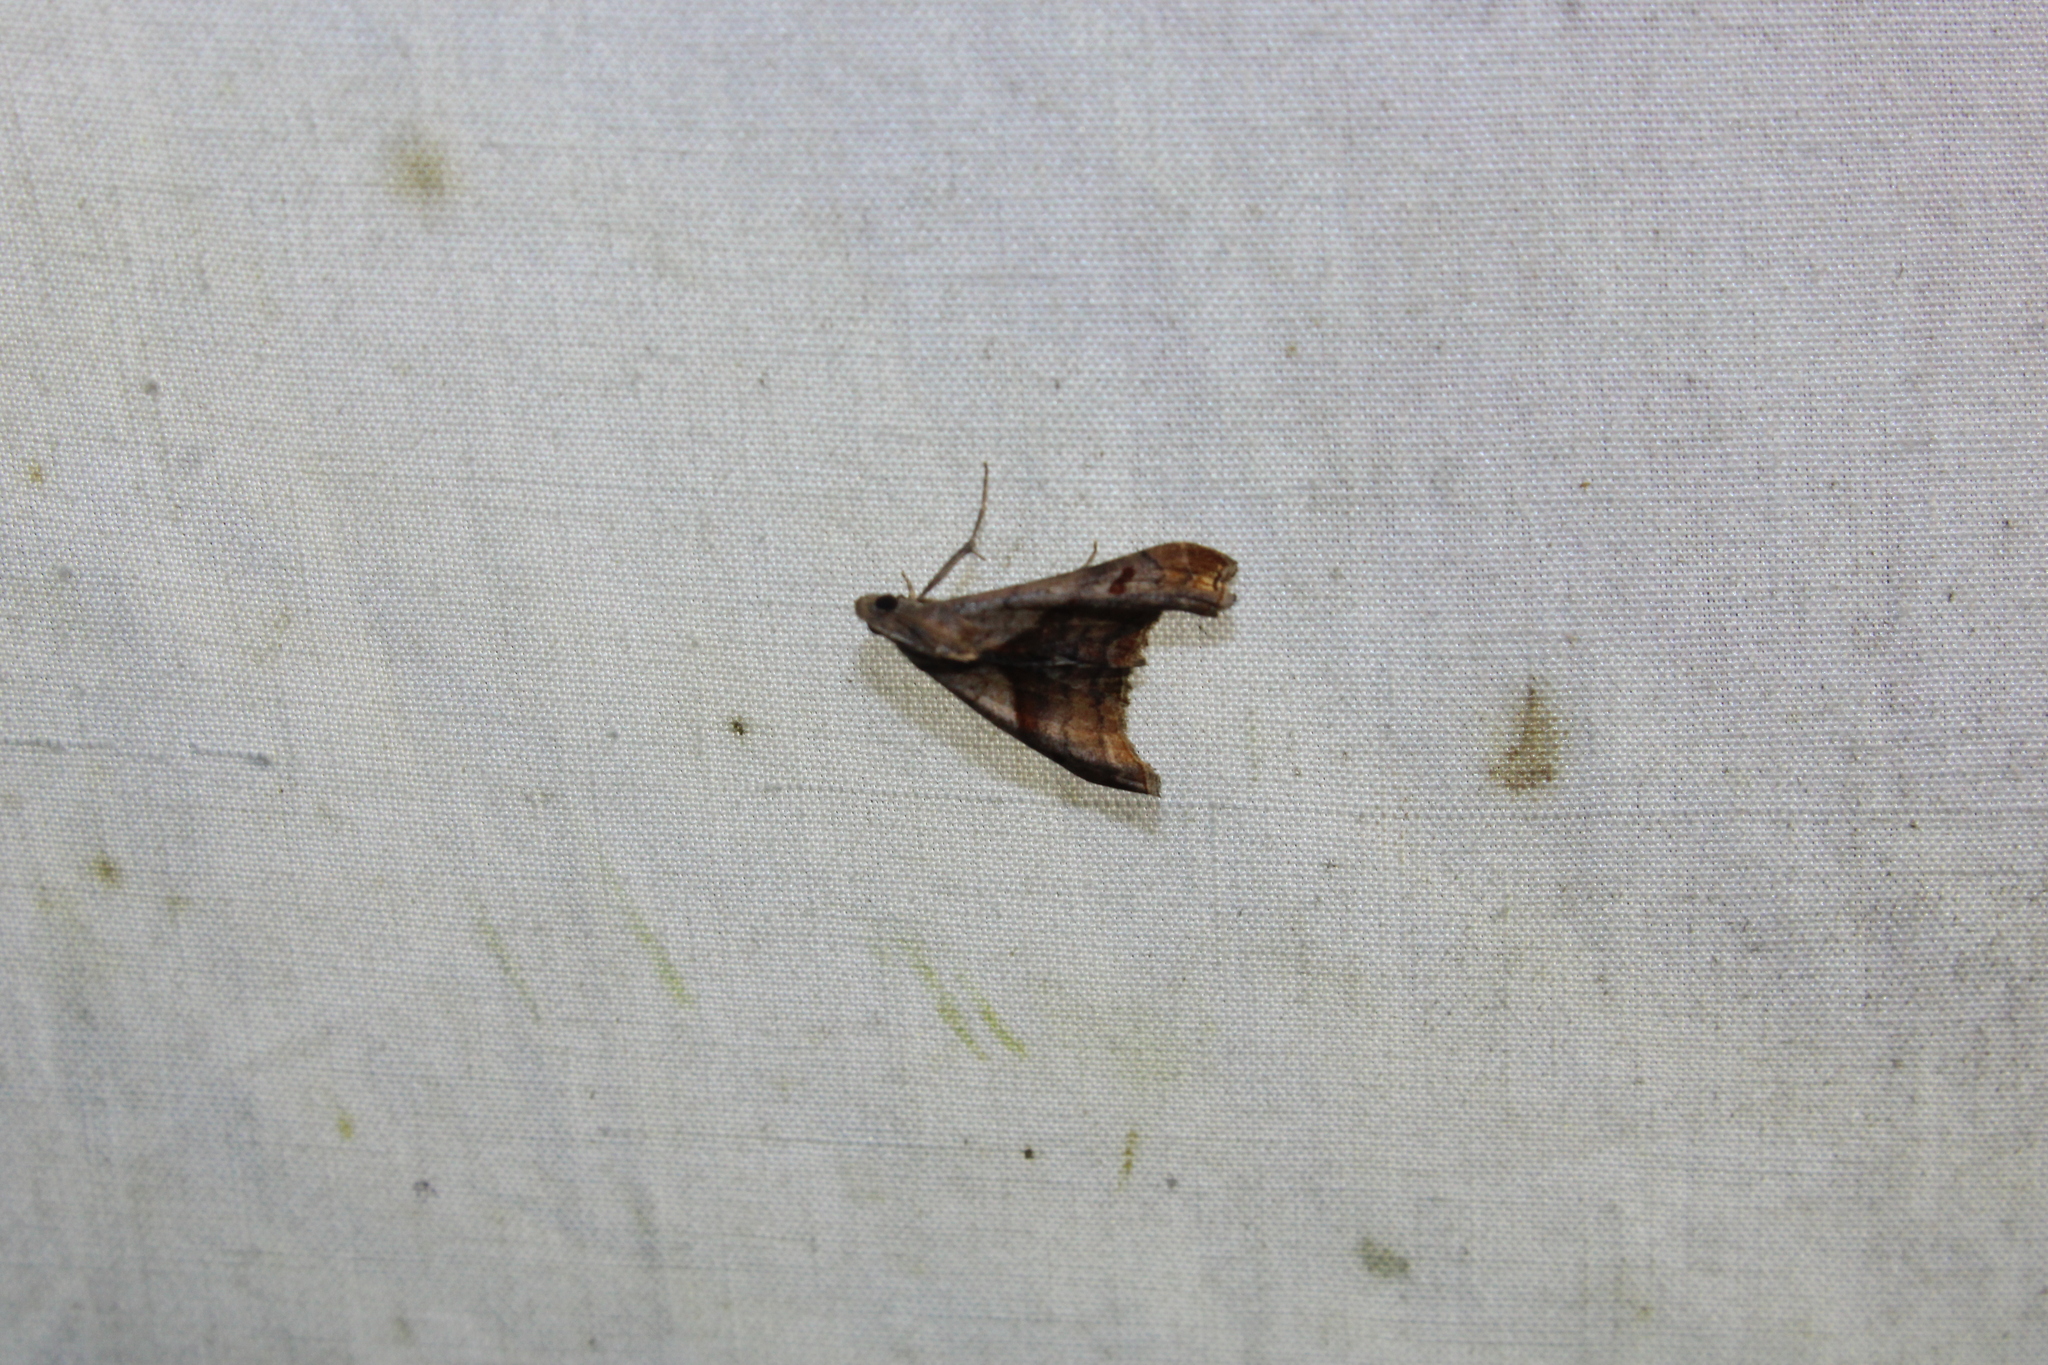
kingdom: Animalia
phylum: Arthropoda
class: Insecta
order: Lepidoptera
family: Erebidae
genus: Palthis
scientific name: Palthis angulalis
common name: Dark-spotted palthis moth
